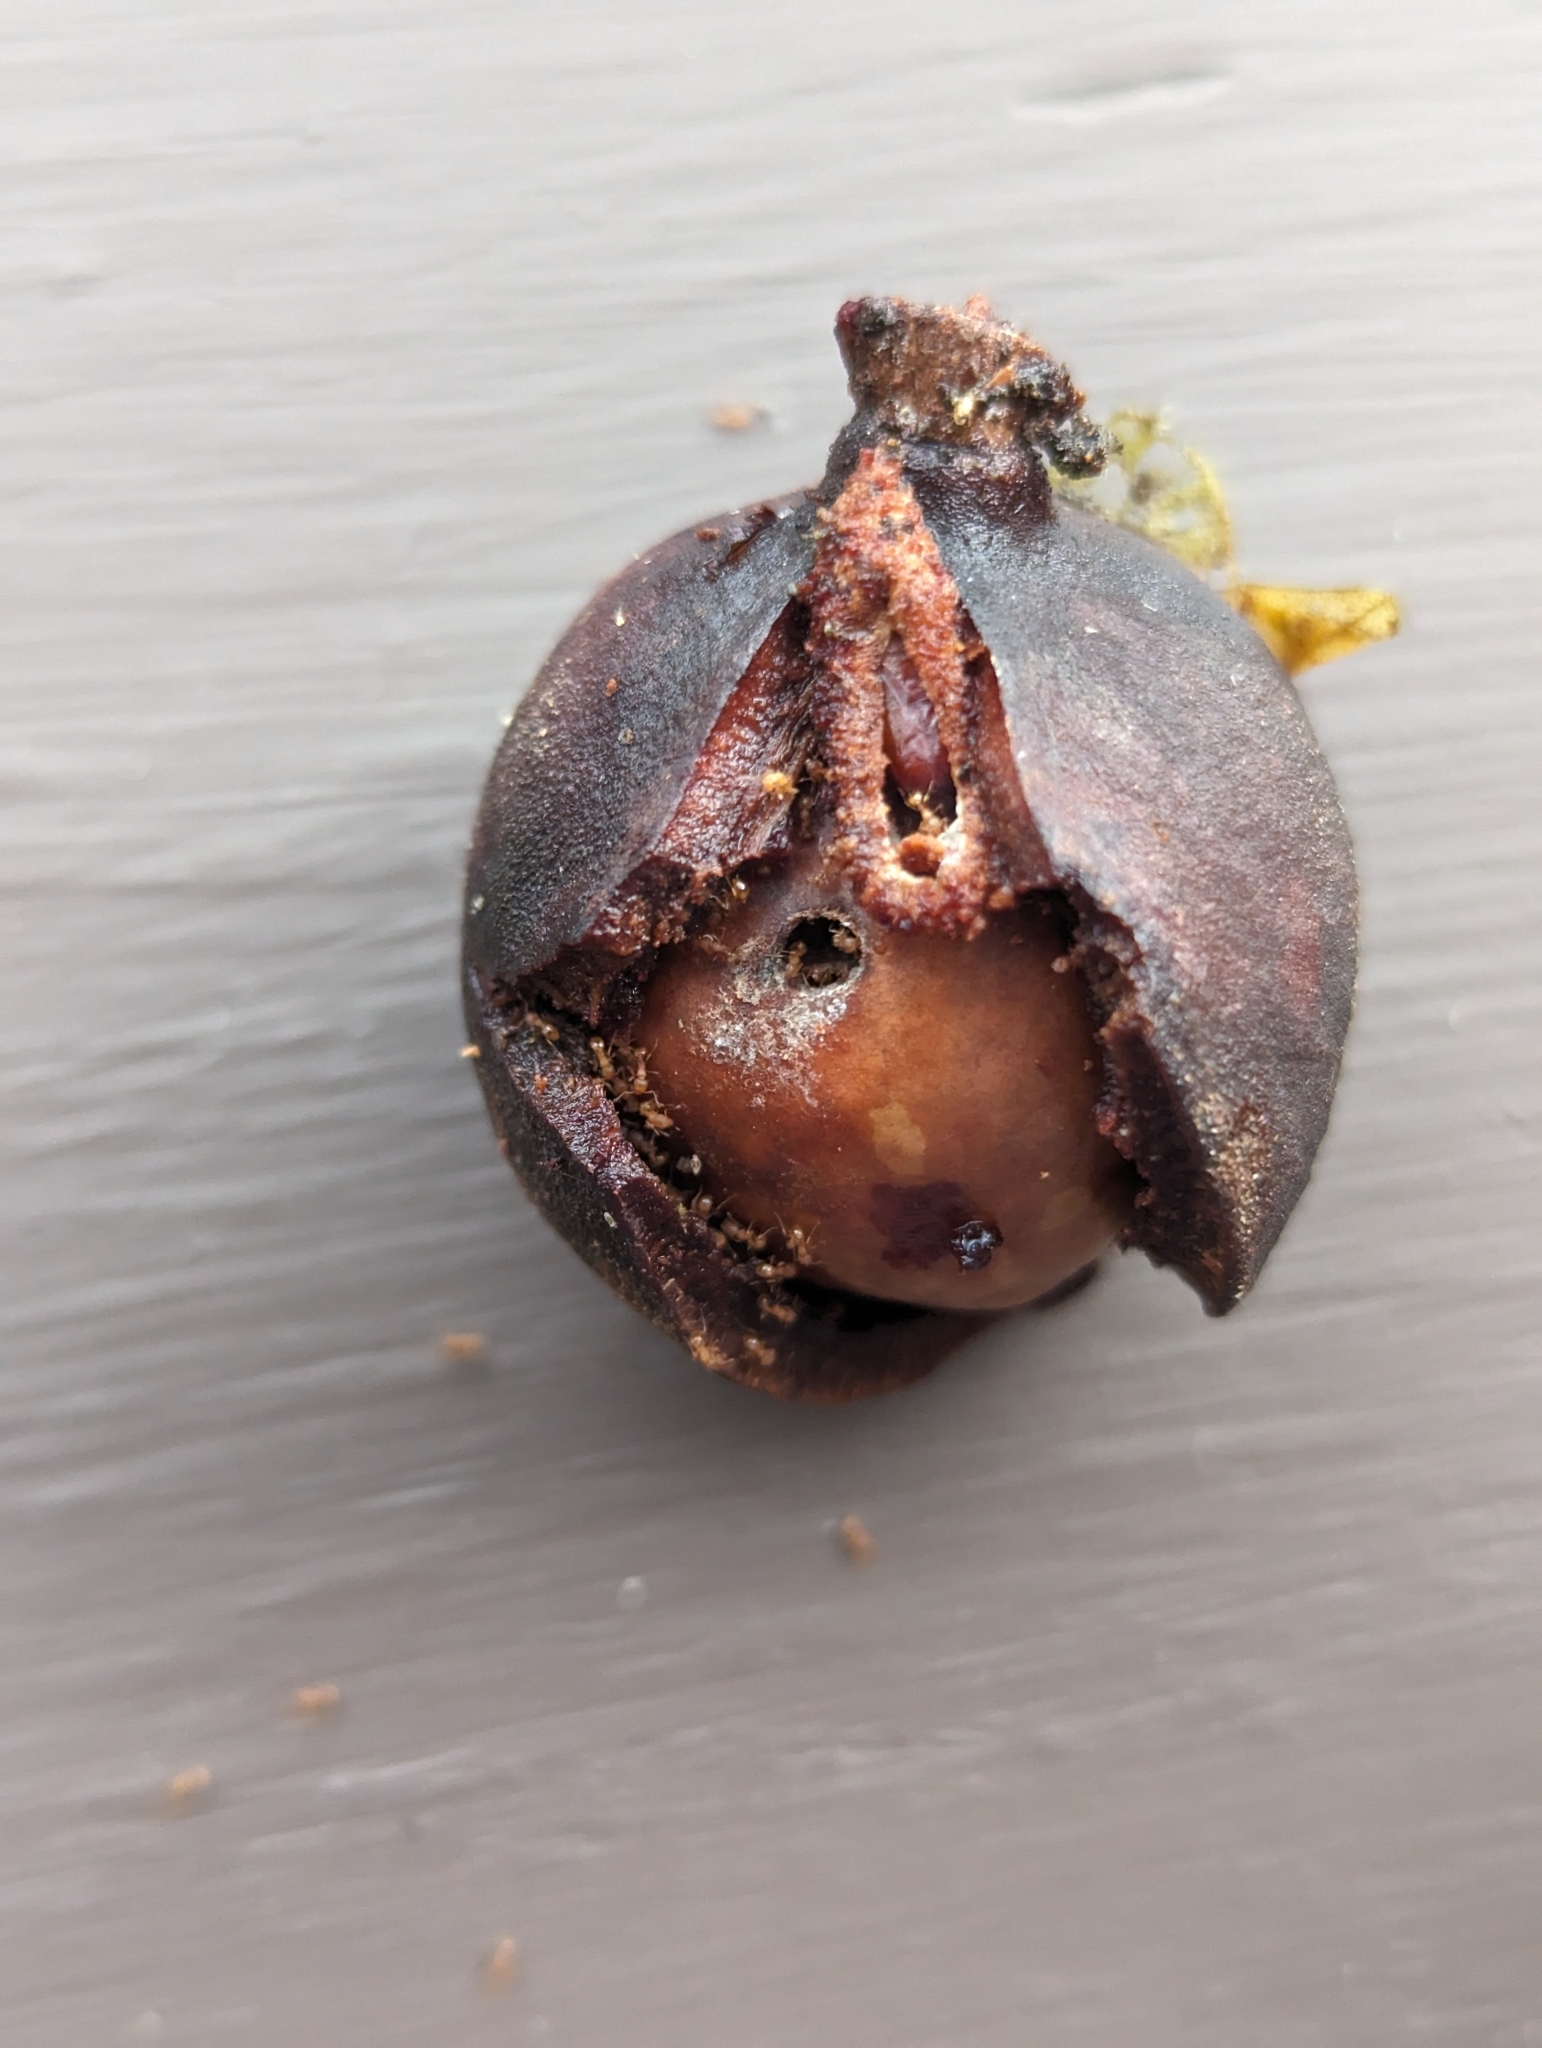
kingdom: Animalia
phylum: Arthropoda
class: Insecta
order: Hymenoptera
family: Formicidae
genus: Wasmannia
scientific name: Wasmannia auropunctata
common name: Little fire ant
